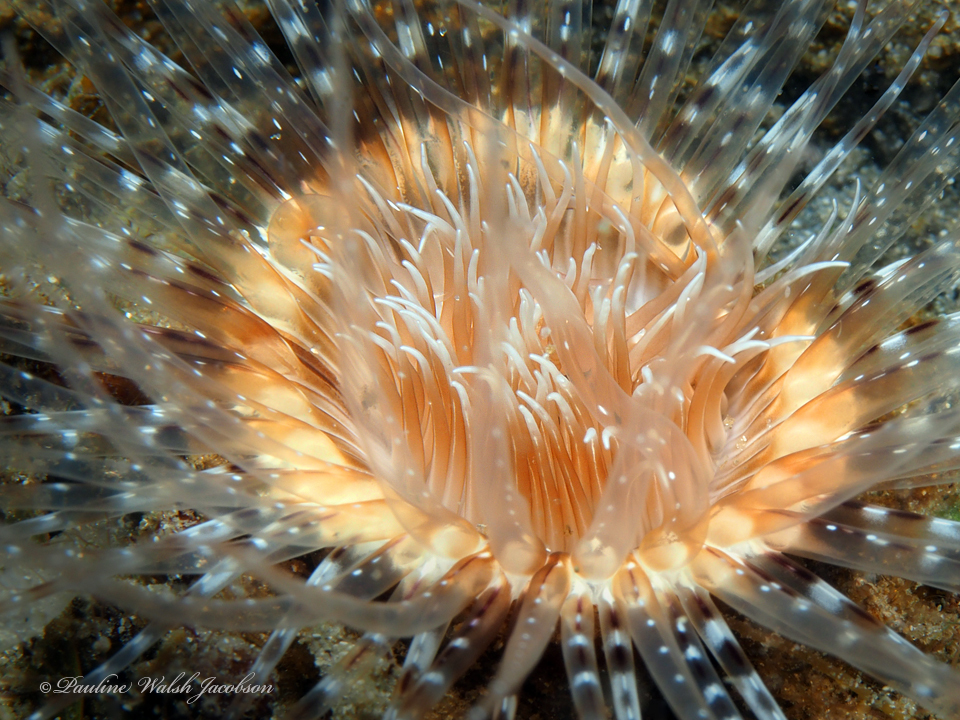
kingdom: Animalia
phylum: Cnidaria
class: Anthozoa
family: Cerianthidae
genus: Ceriantheopsis
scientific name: Ceriantheopsis americana
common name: American tube-dwelling anemone
